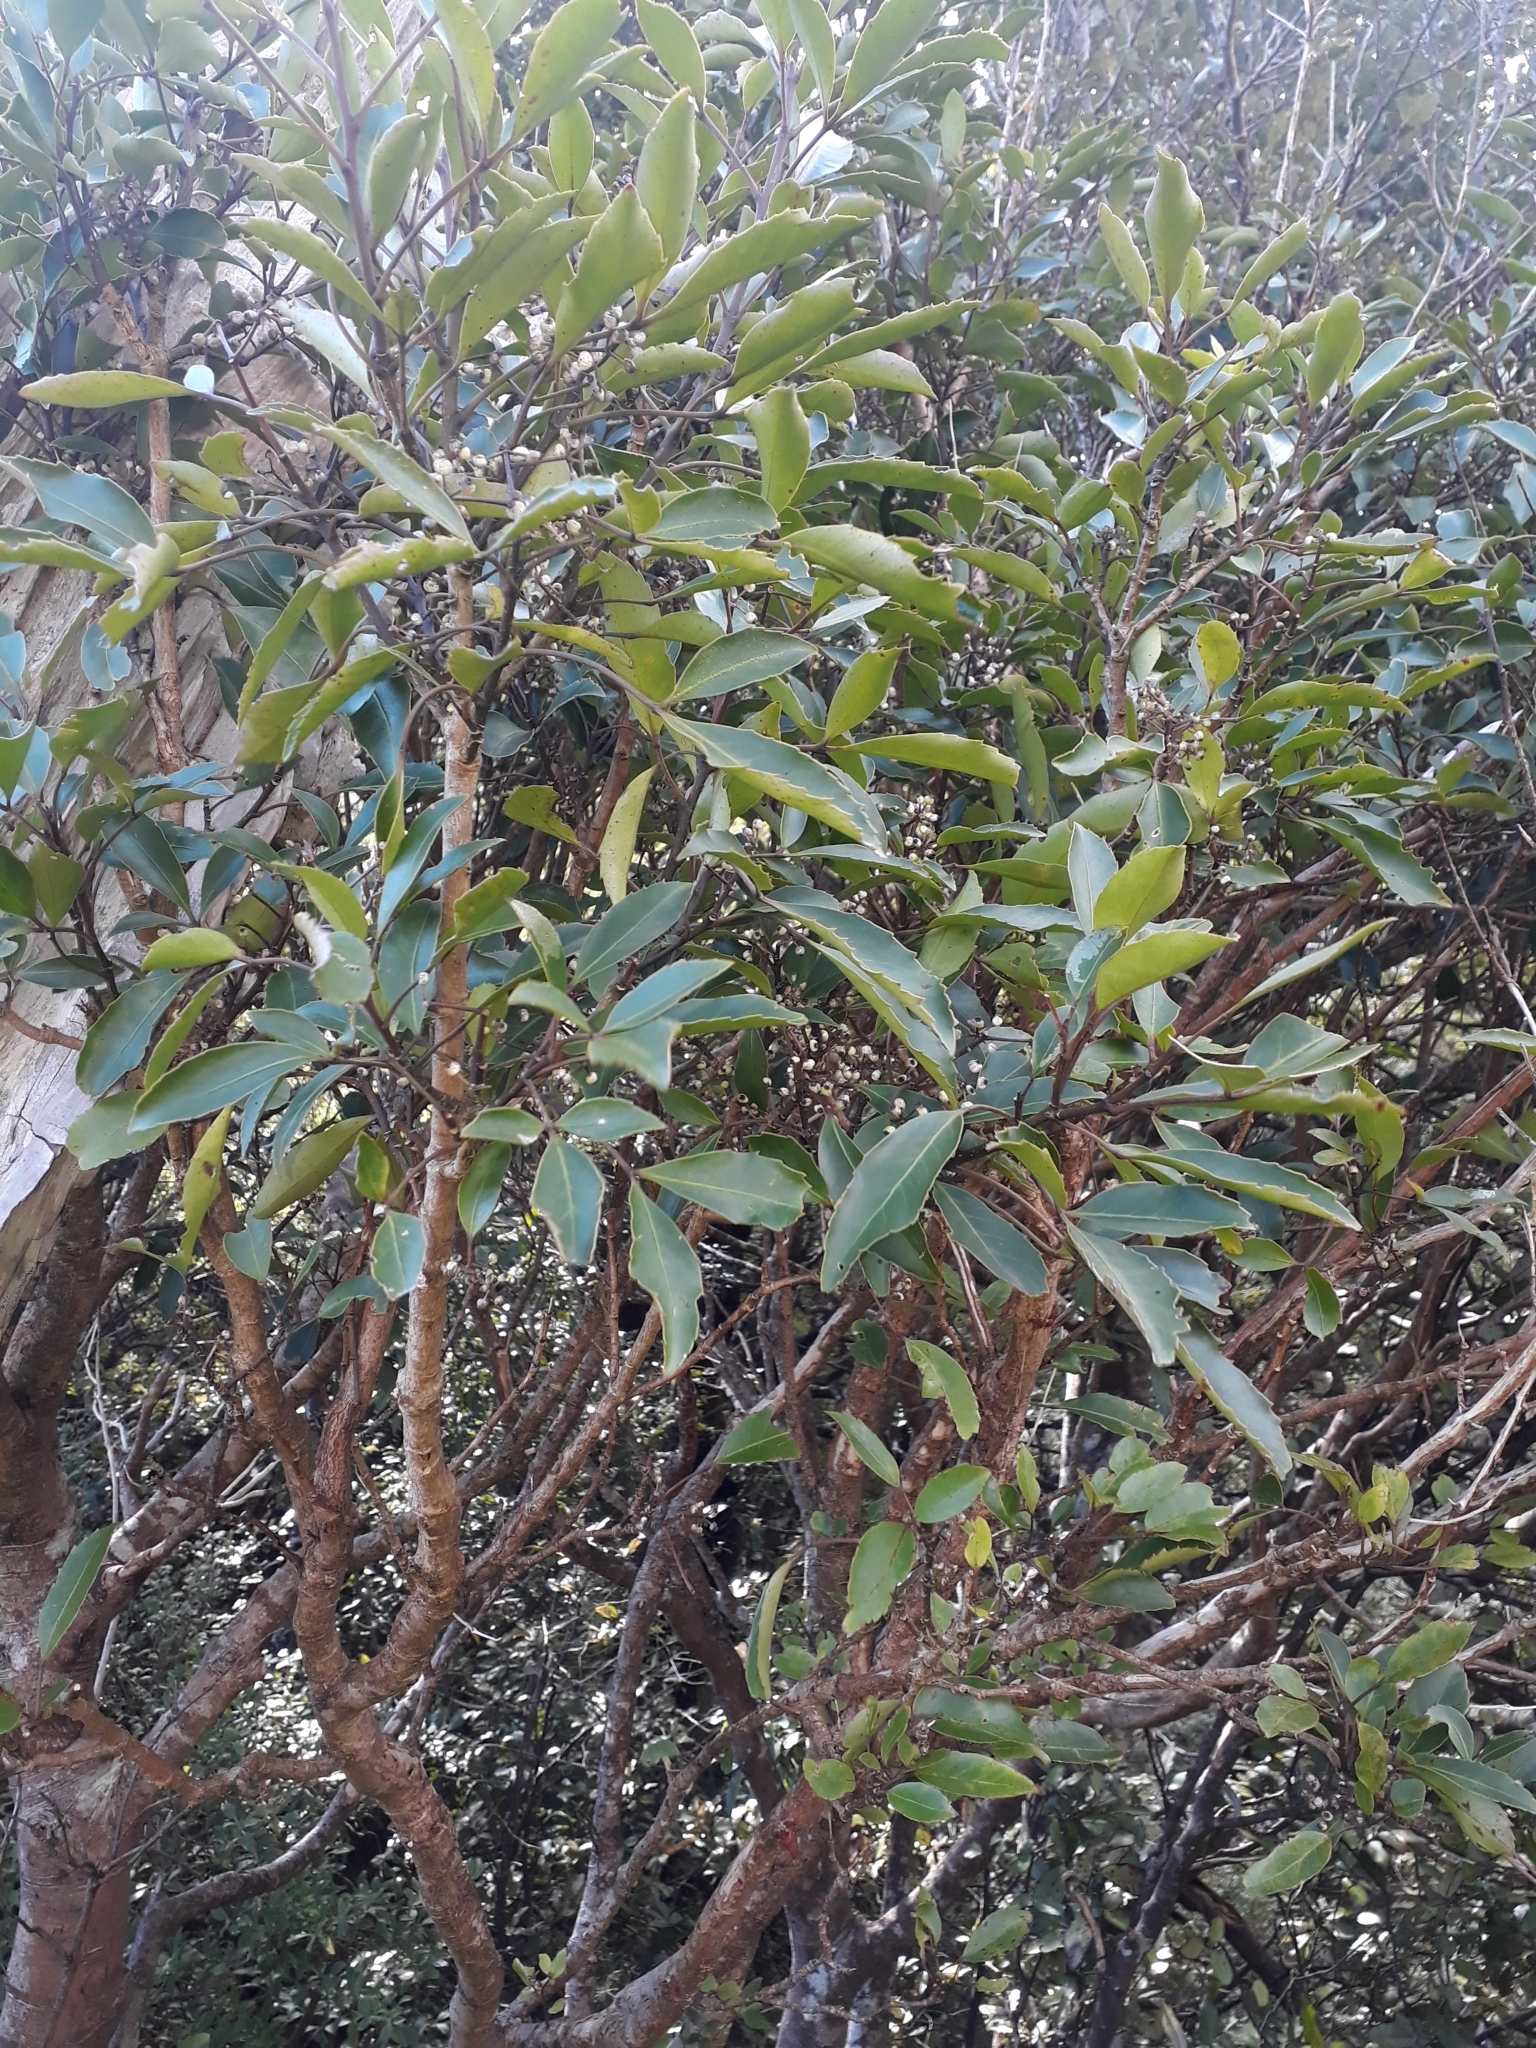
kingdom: Plantae
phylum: Tracheophyta
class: Magnoliopsida
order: Apiales
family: Araliaceae
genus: Raukaua
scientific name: Raukaua simplex
